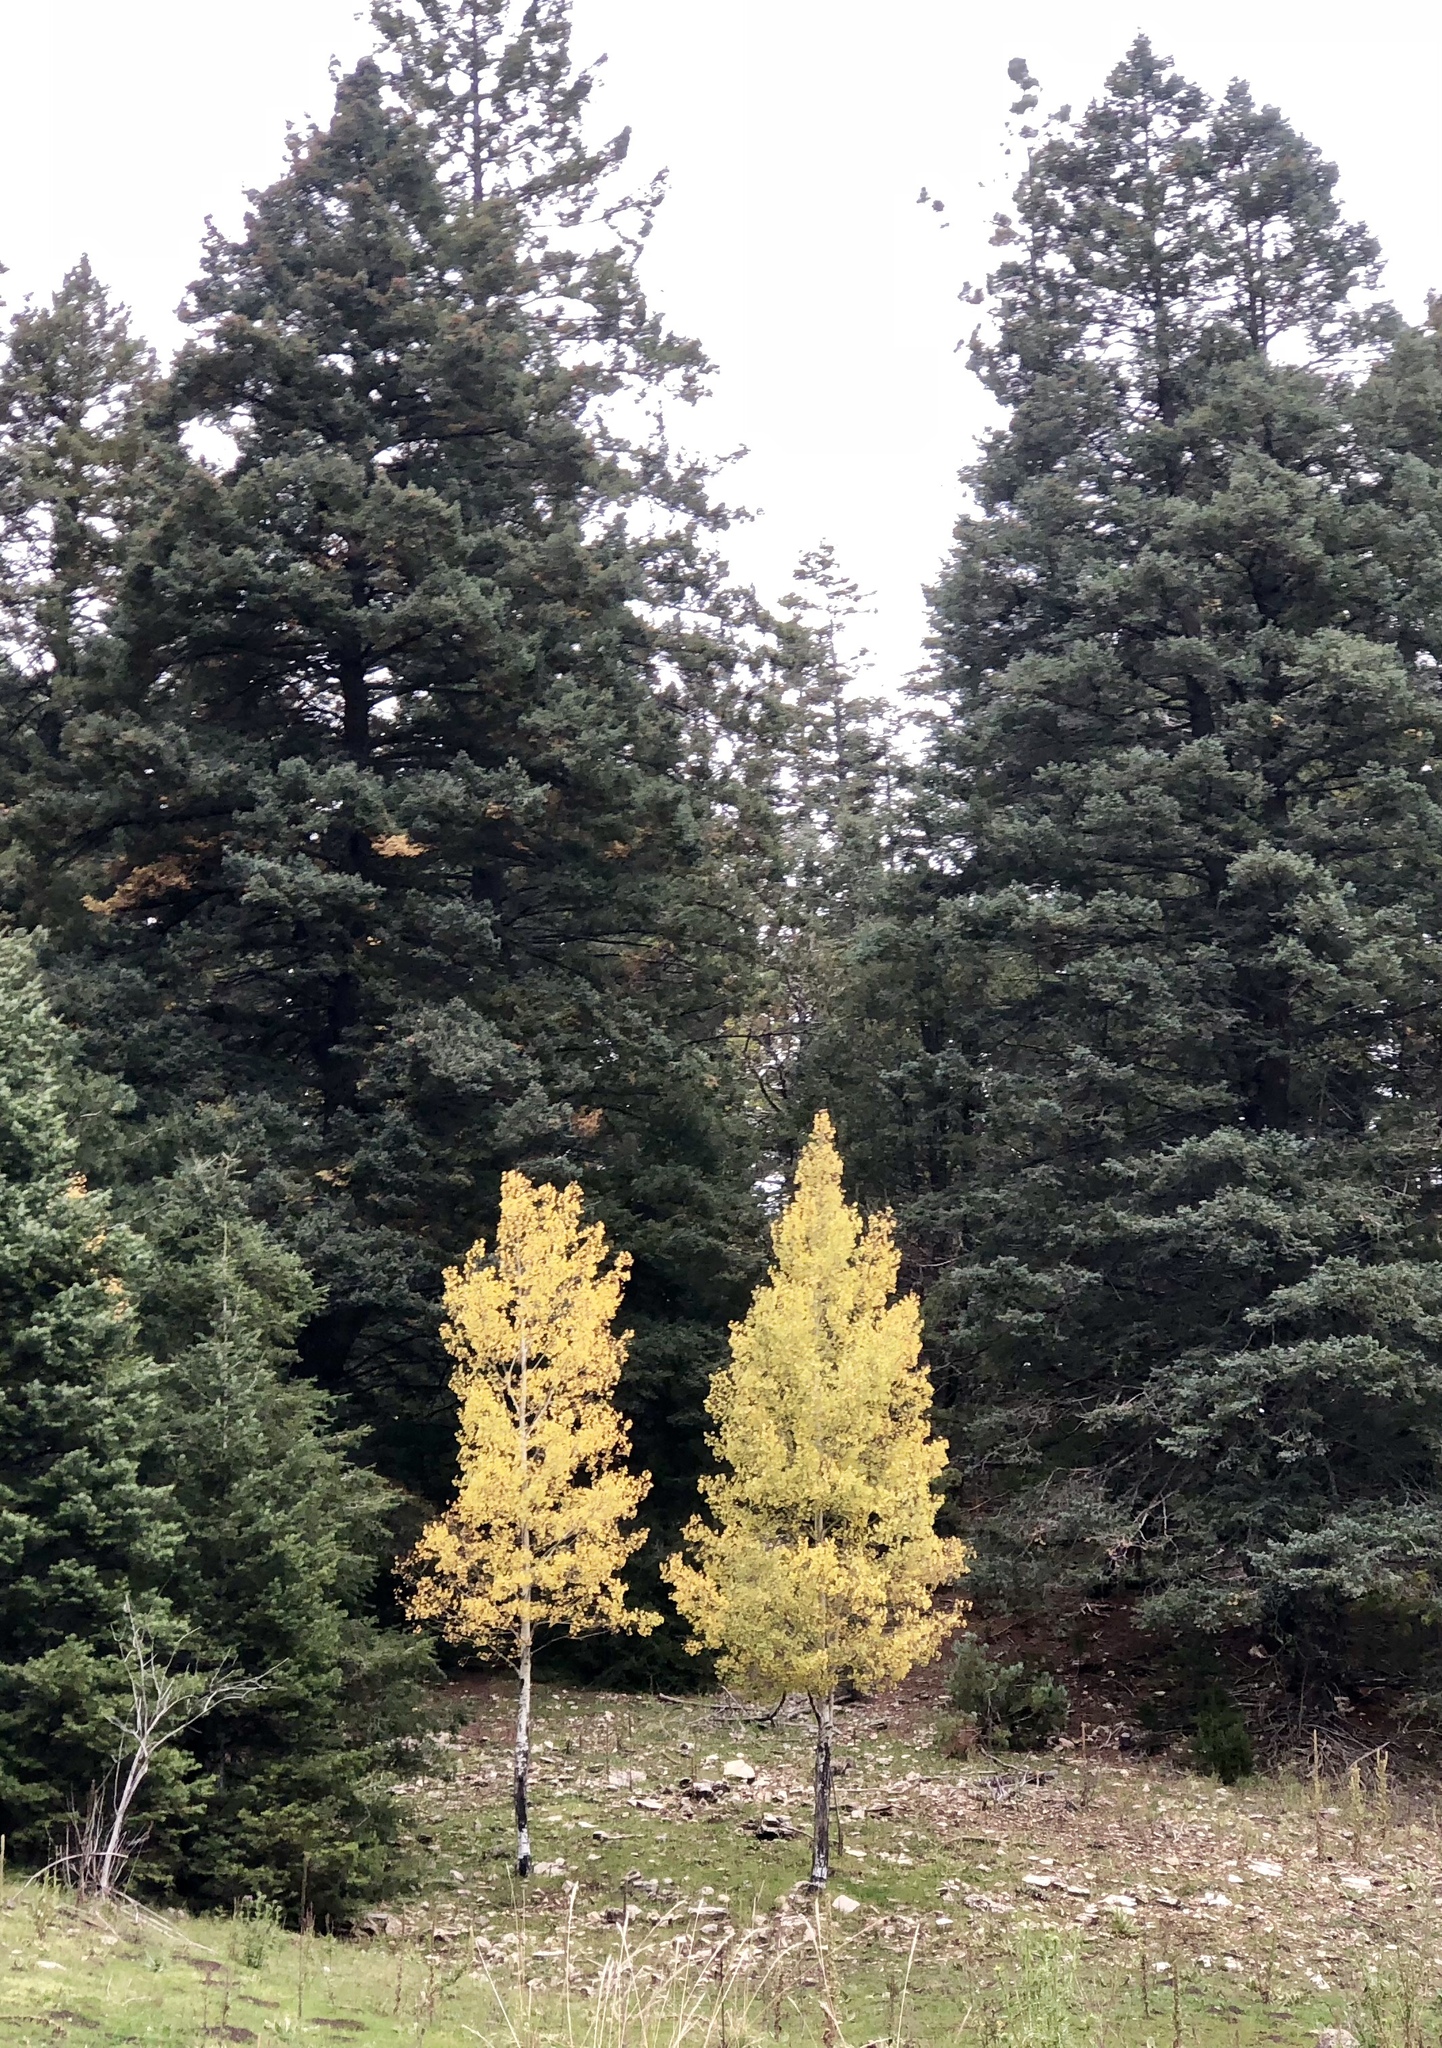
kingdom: Plantae
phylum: Tracheophyta
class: Magnoliopsida
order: Malpighiales
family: Salicaceae
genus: Populus
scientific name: Populus tremuloides
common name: Quaking aspen
